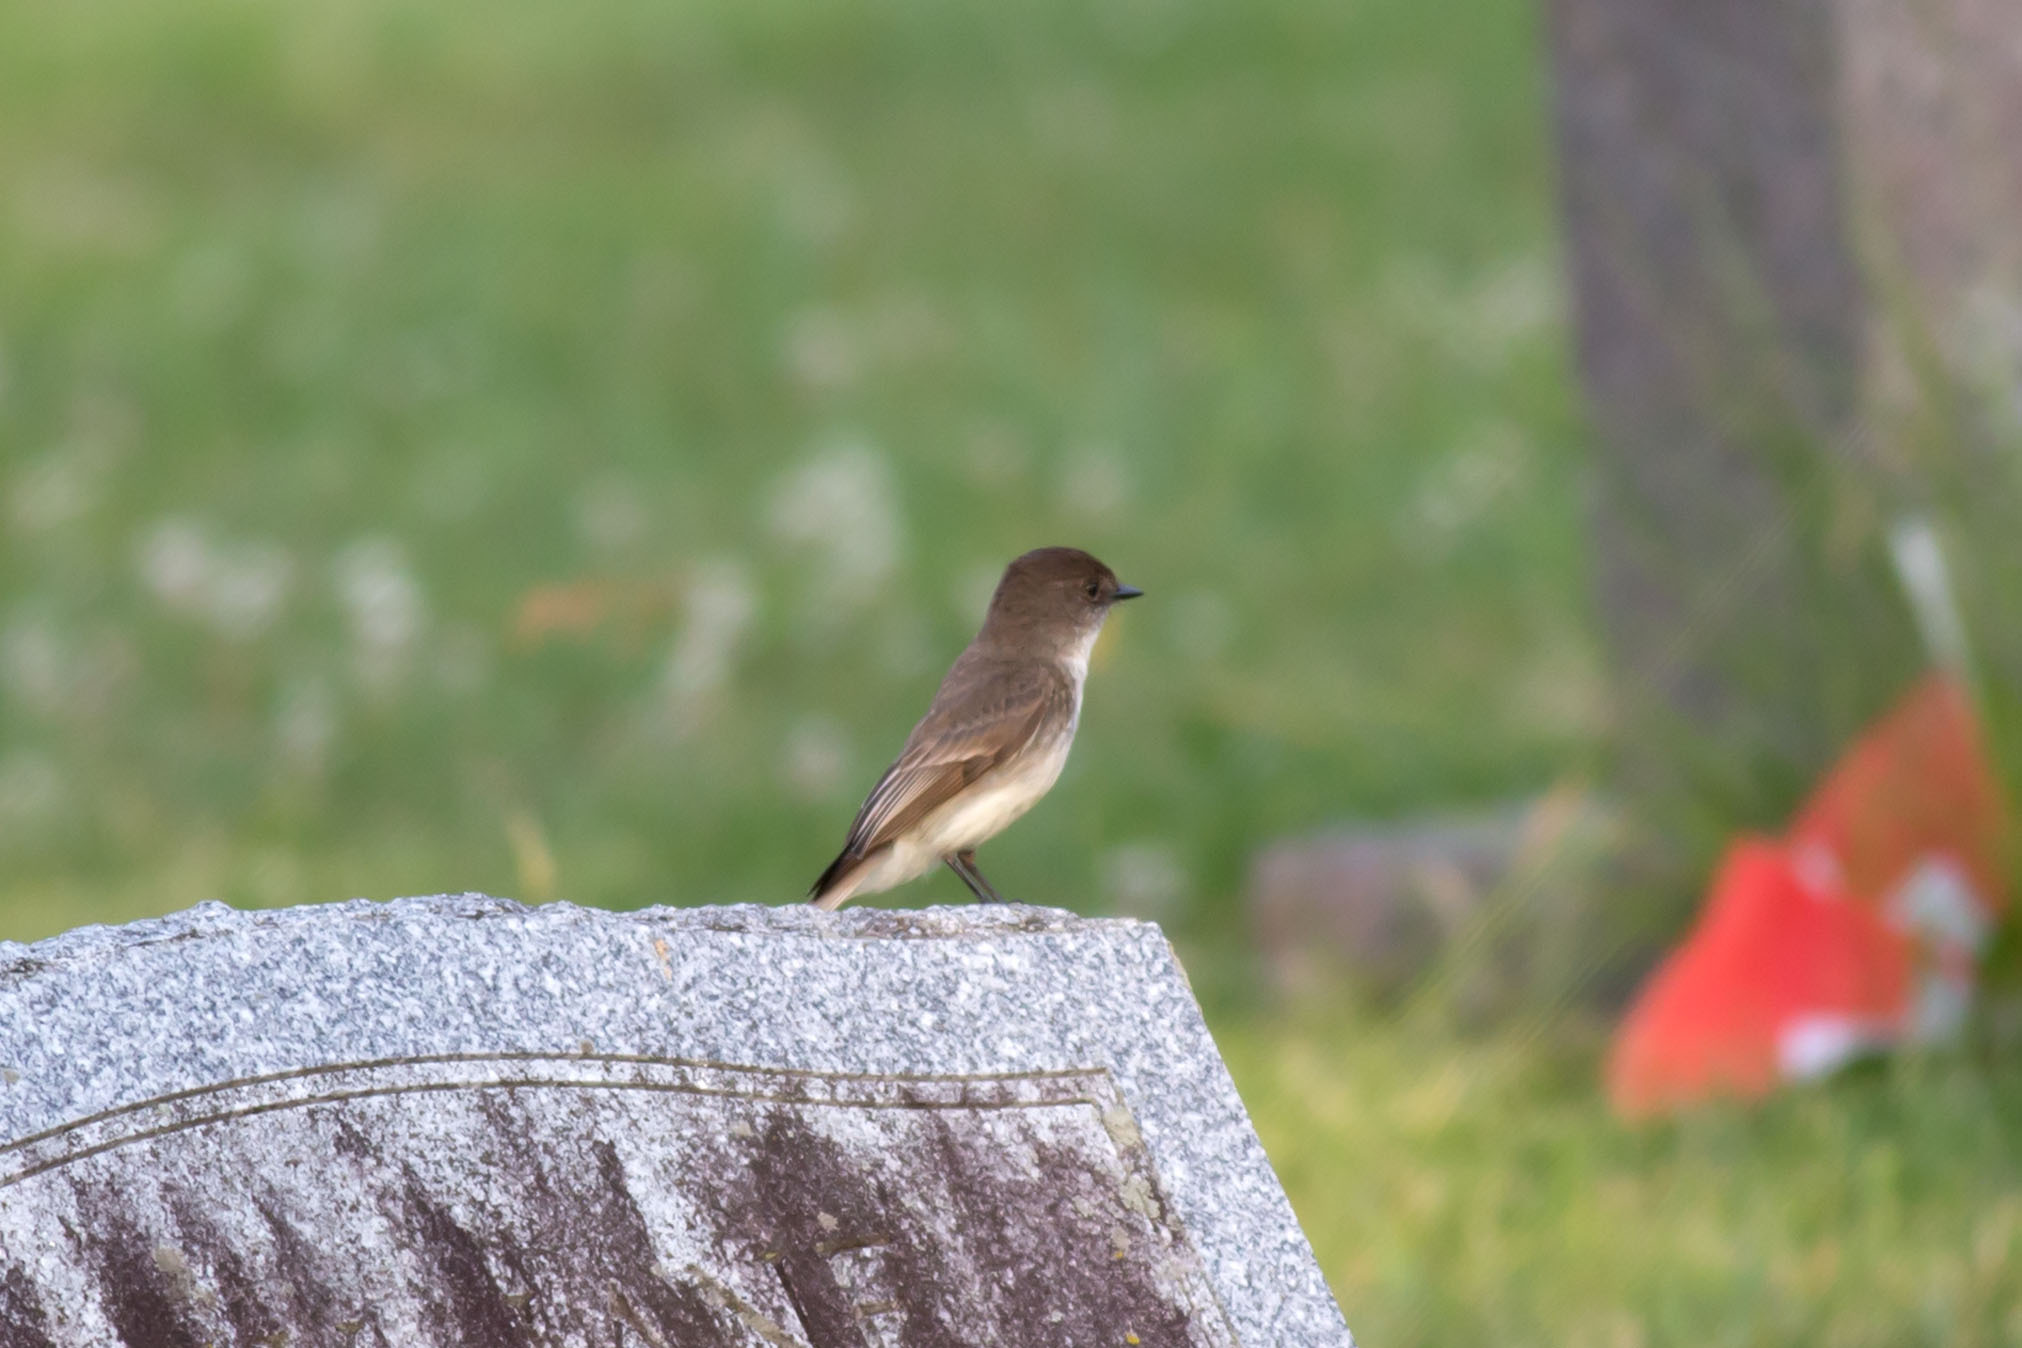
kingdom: Animalia
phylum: Chordata
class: Aves
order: Passeriformes
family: Tyrannidae
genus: Sayornis
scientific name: Sayornis phoebe
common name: Eastern phoebe
